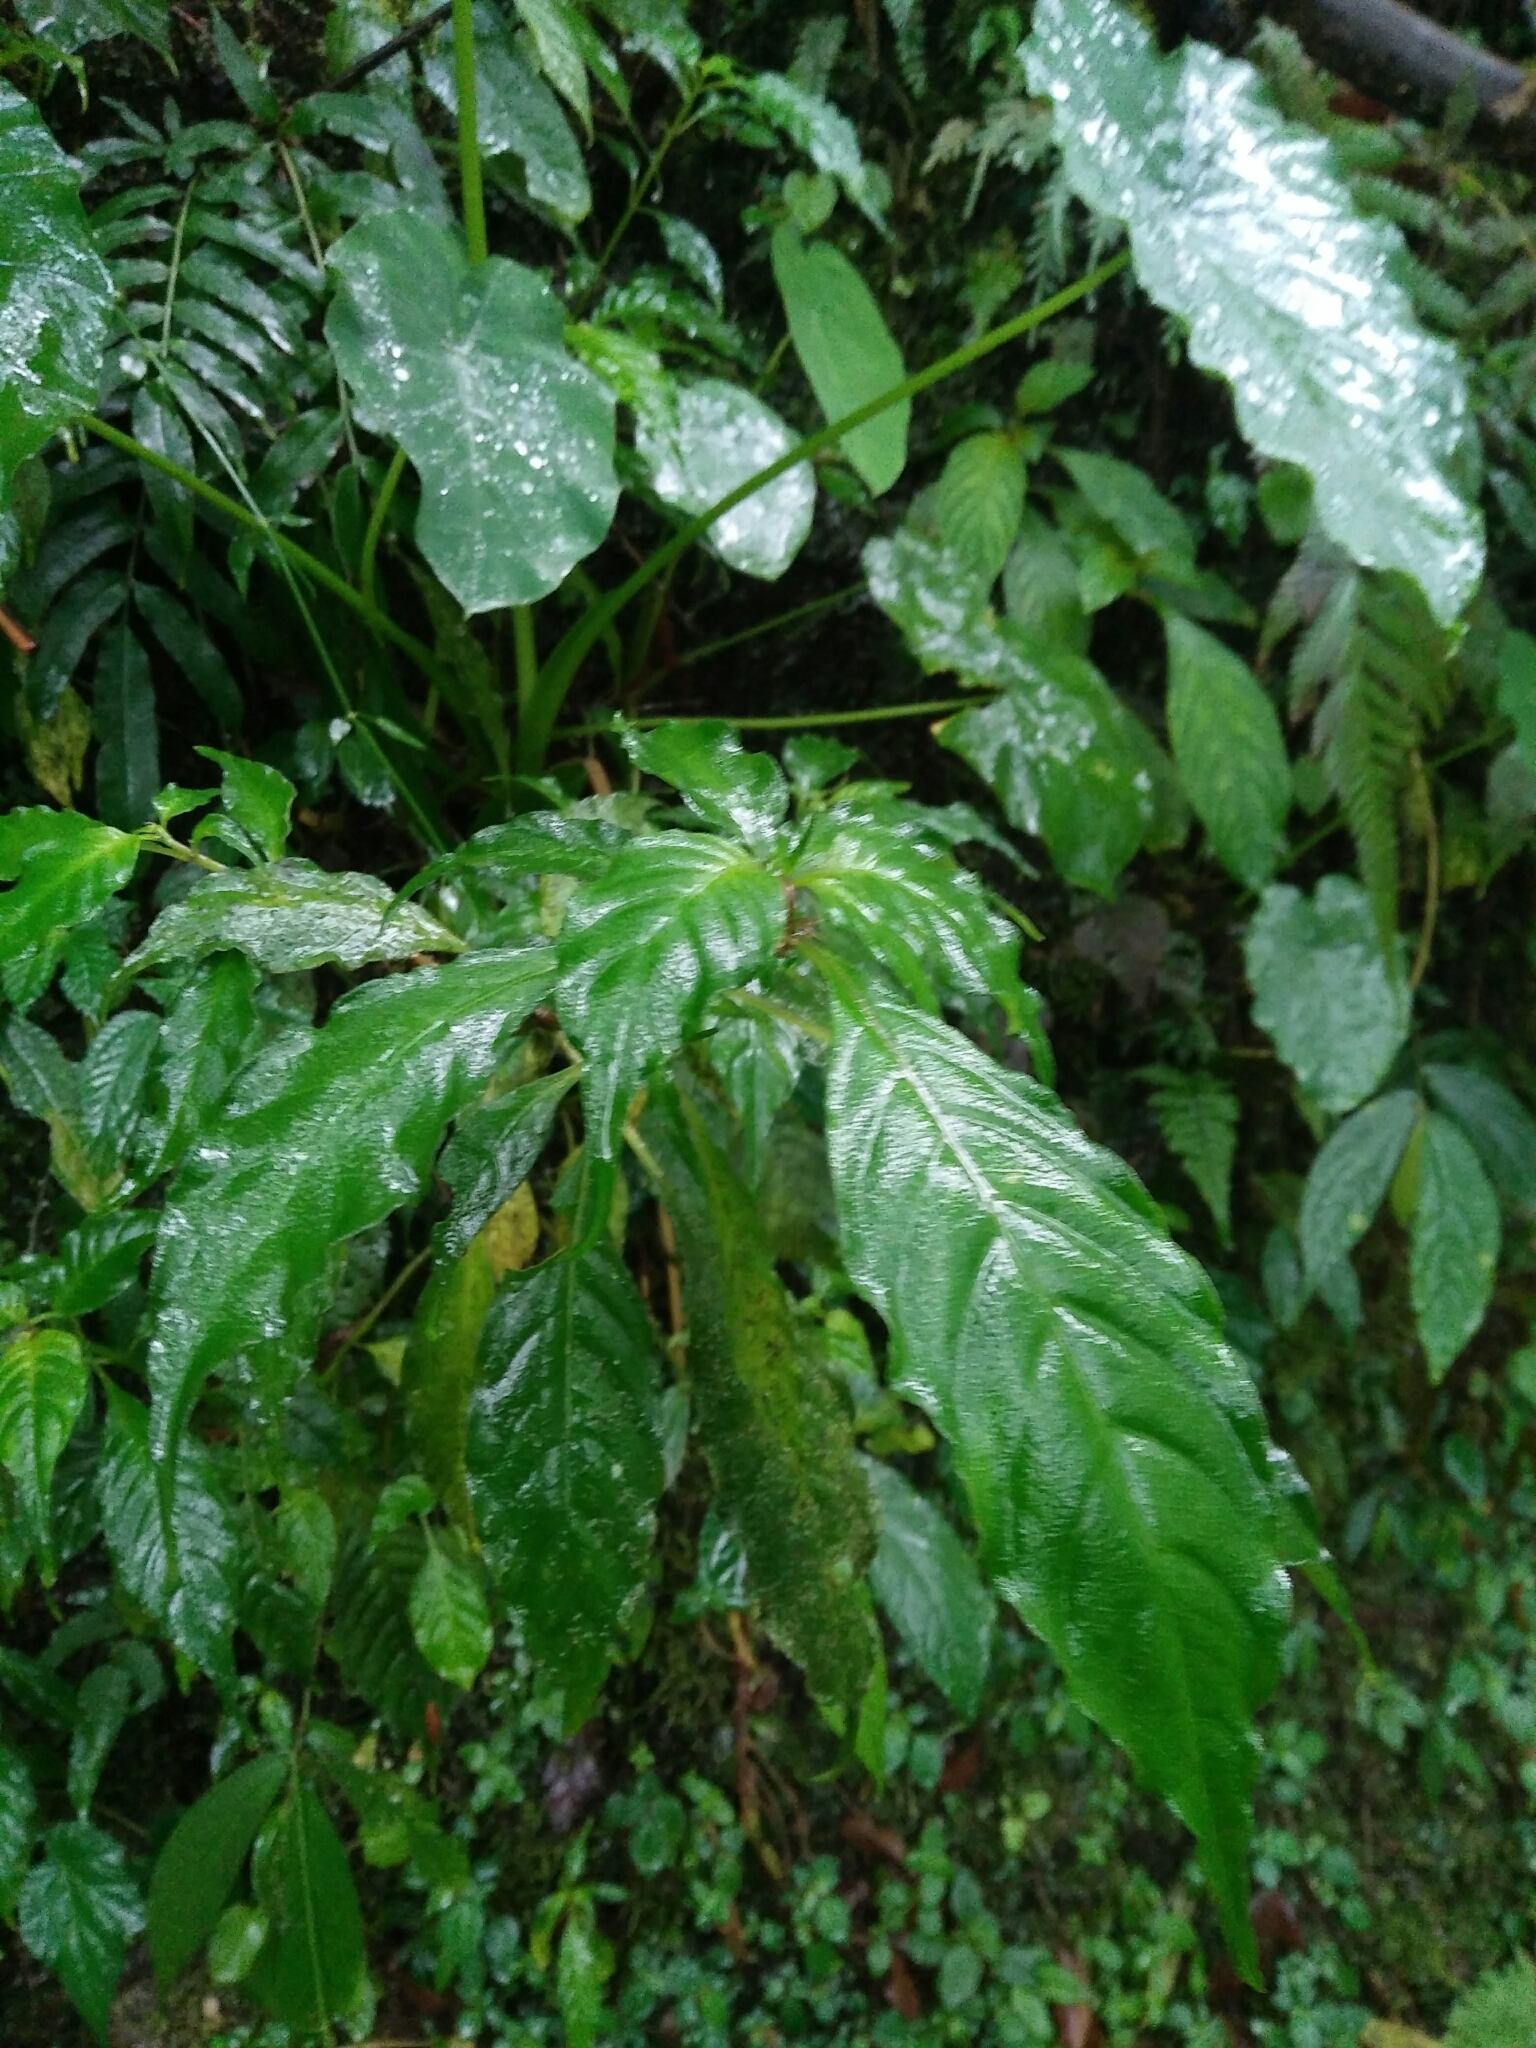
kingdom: Plantae
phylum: Tracheophyta
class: Magnoliopsida
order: Lamiales
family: Gesneriaceae
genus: Hemiboea
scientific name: Hemiboea bicornuta
